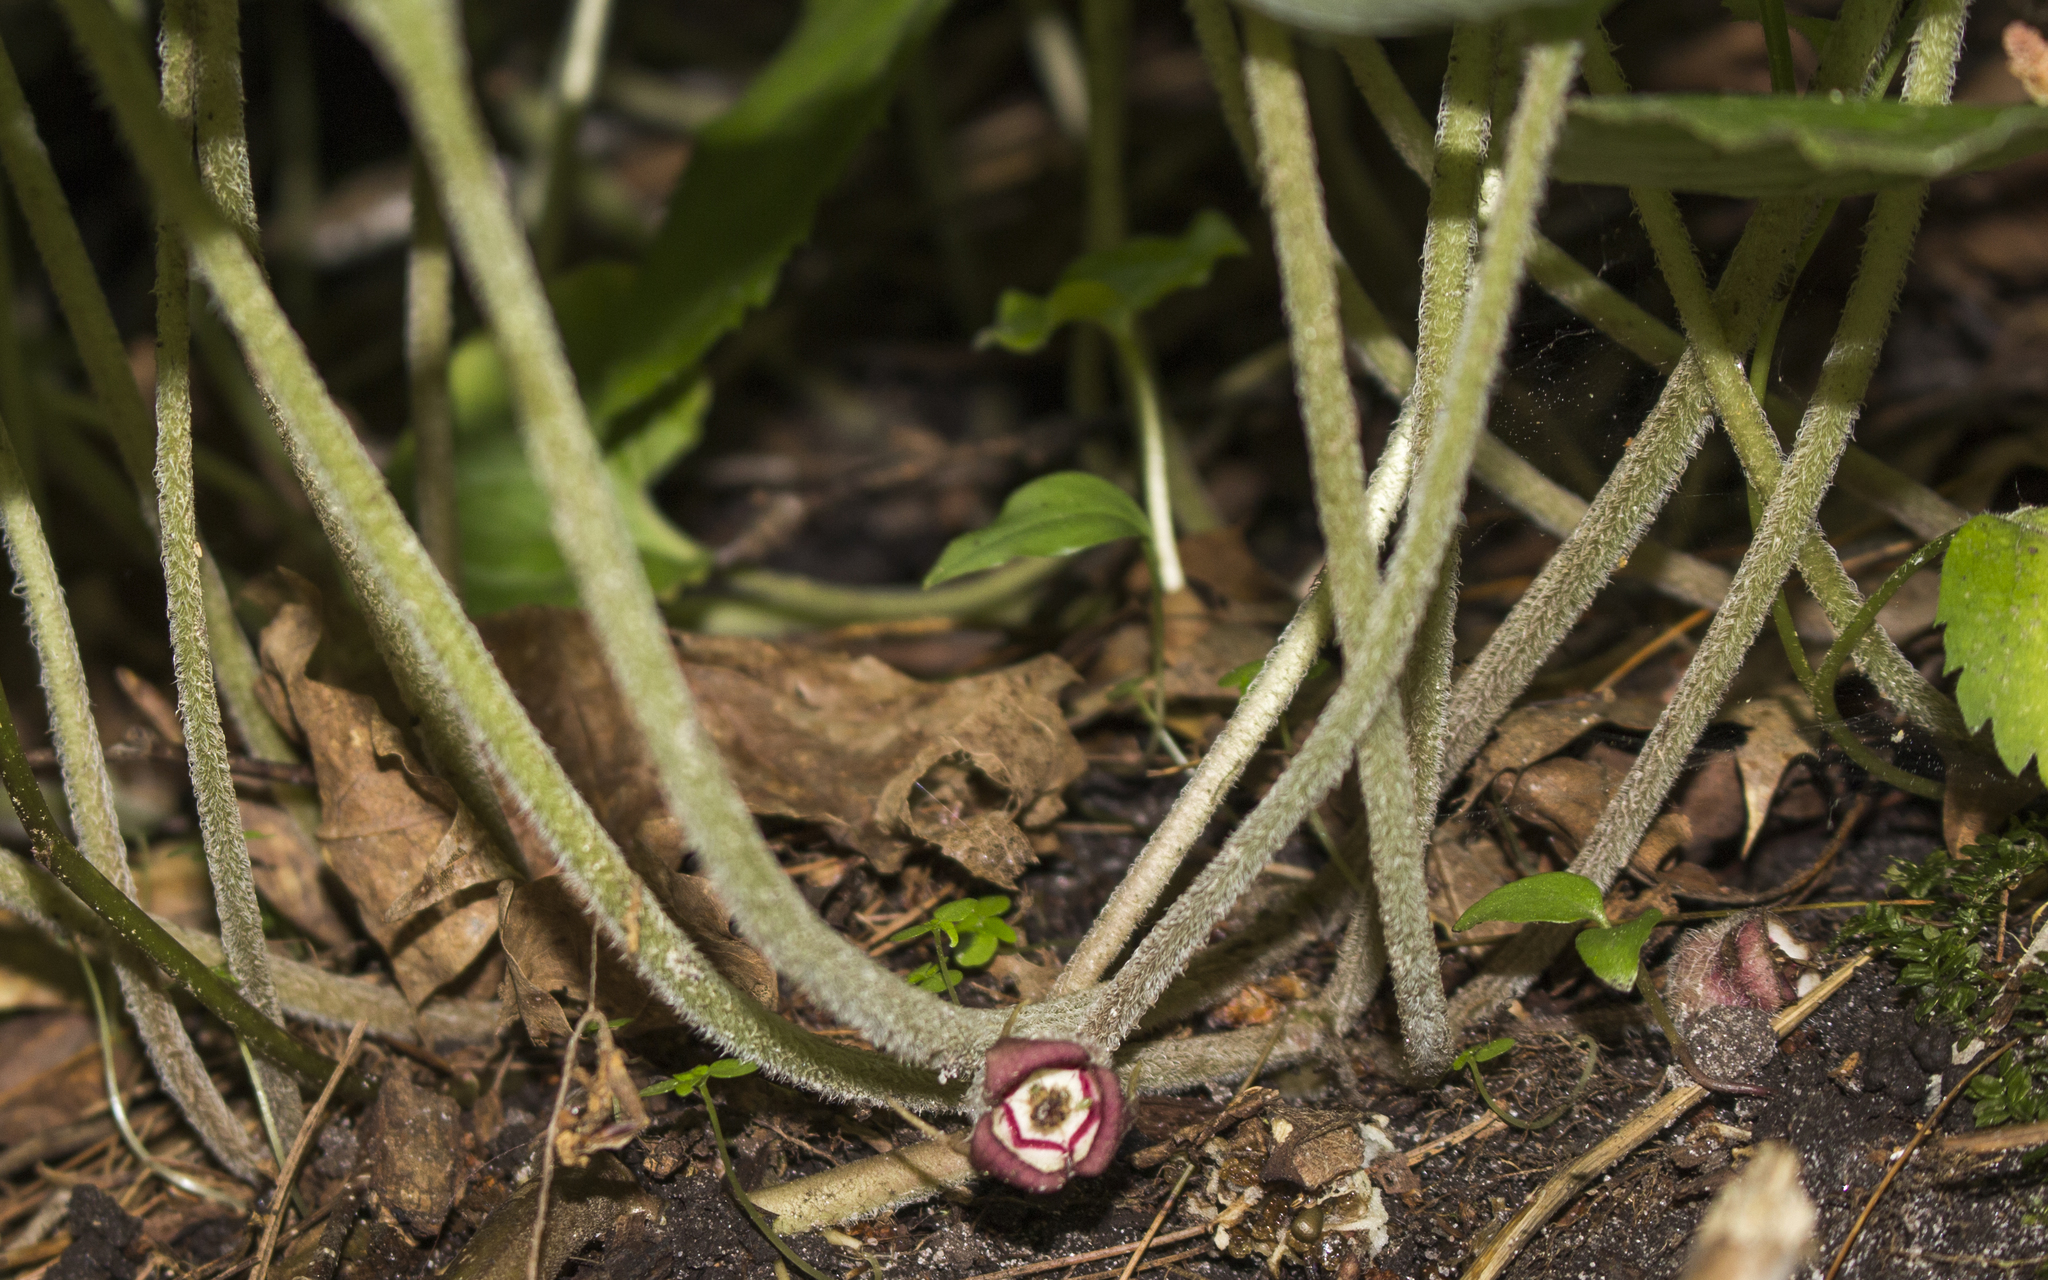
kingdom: Plantae
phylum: Tracheophyta
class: Magnoliopsida
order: Piperales
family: Aristolochiaceae
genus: Asarum
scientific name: Asarum canadense
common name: Wild ginger
